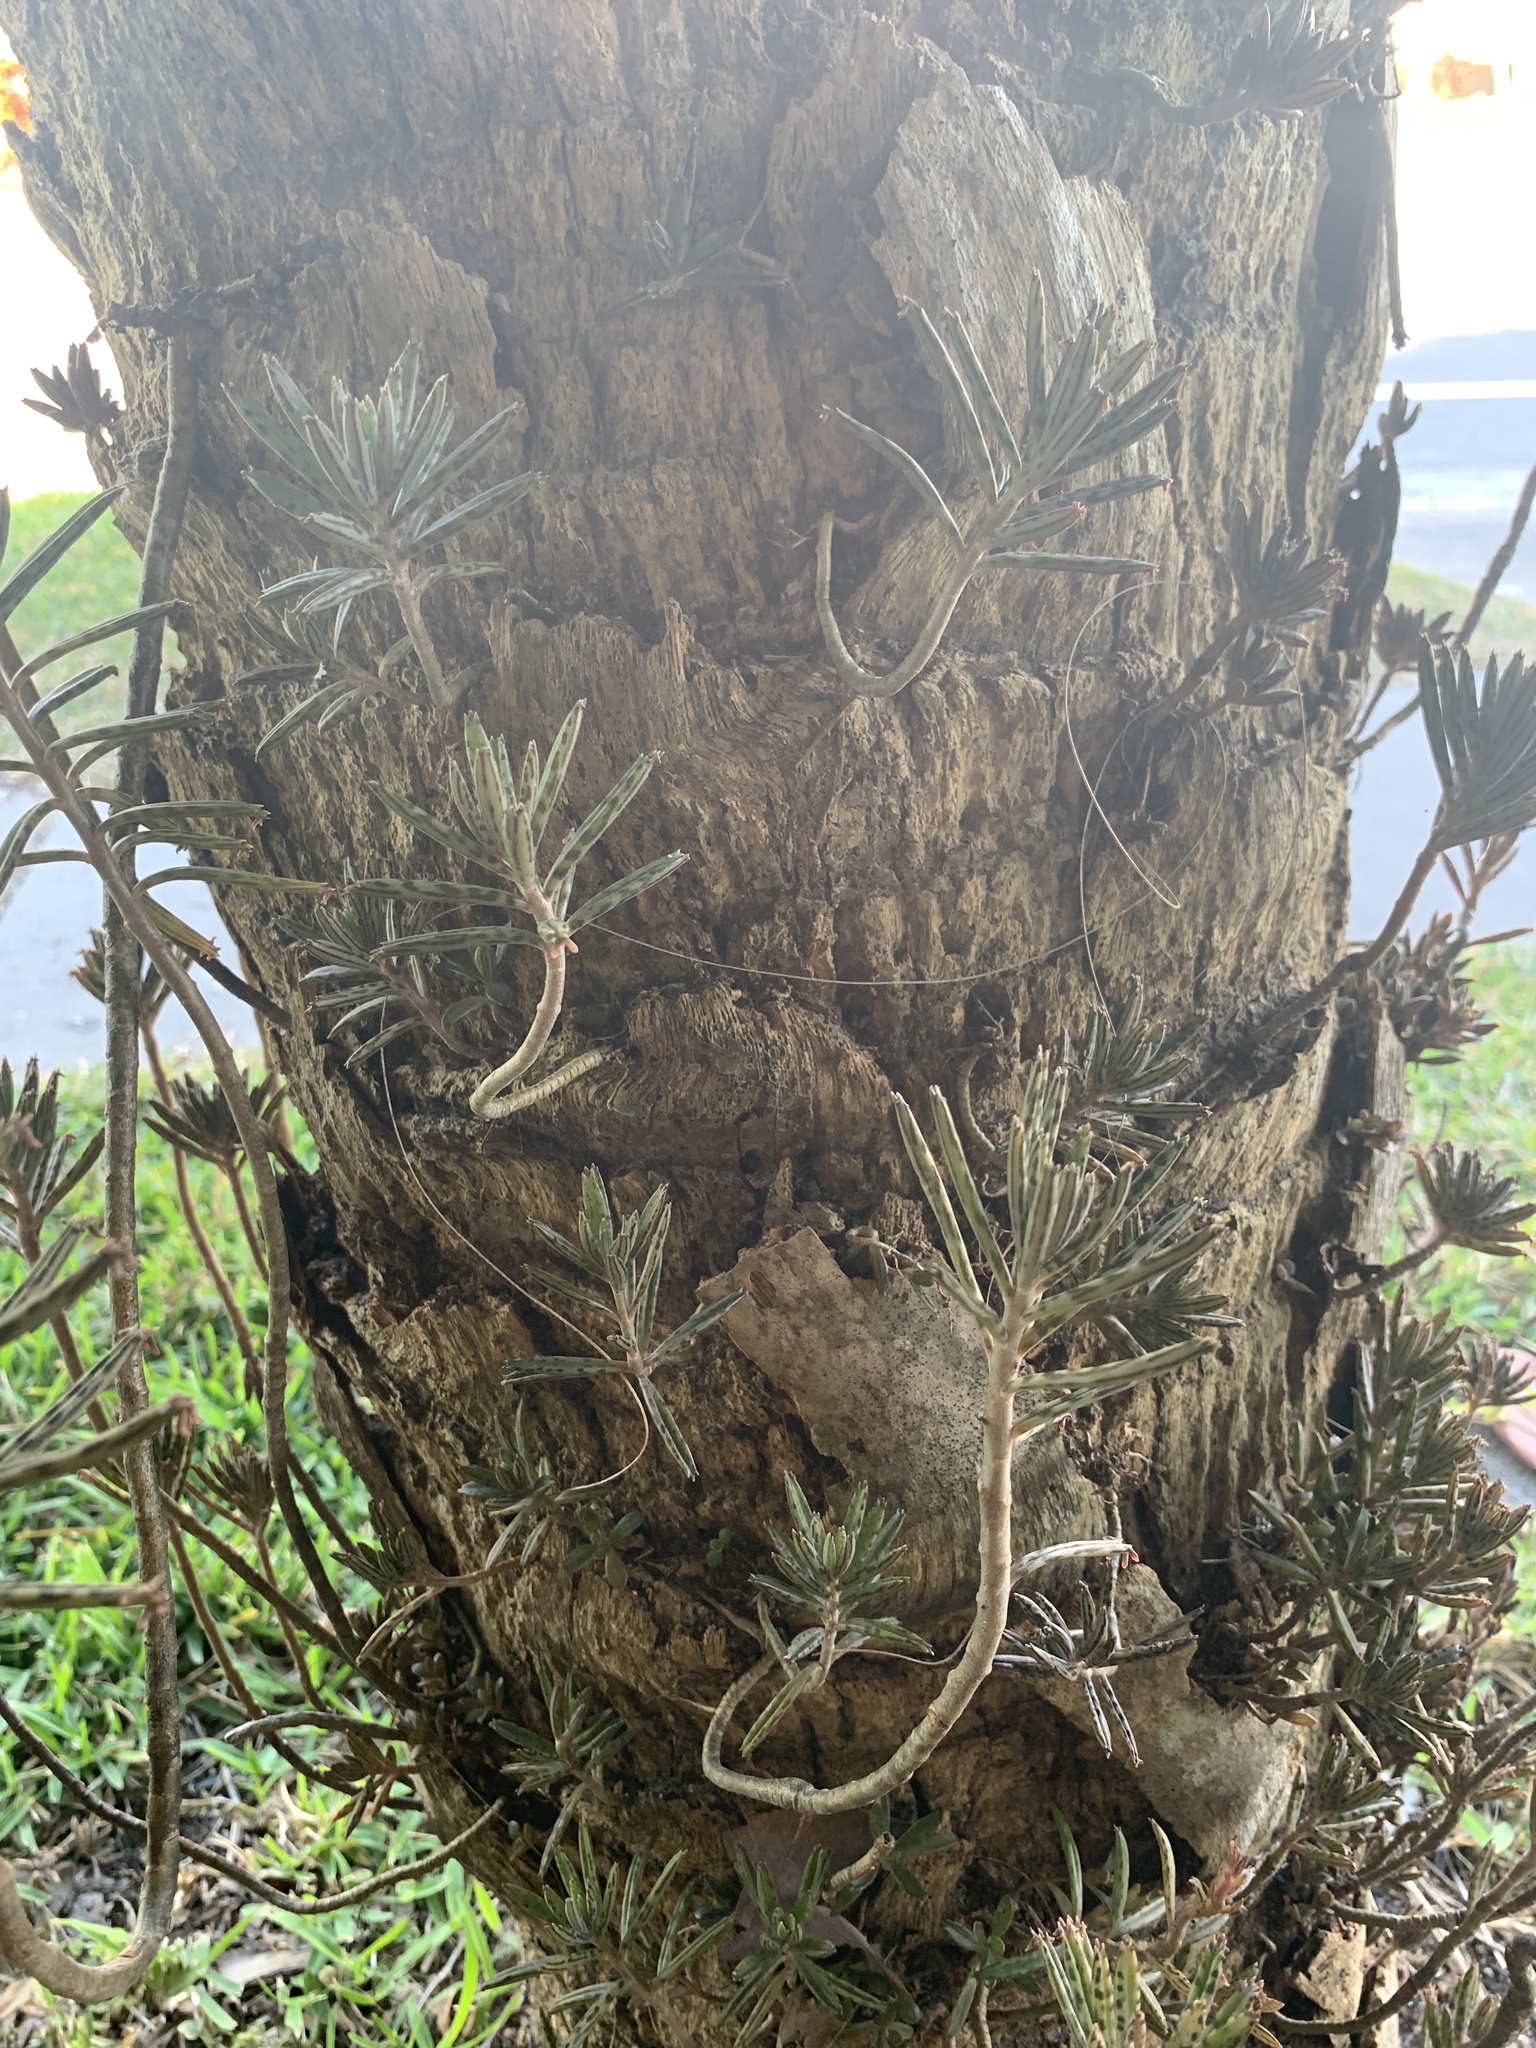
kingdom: Plantae
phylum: Tracheophyta
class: Magnoliopsida
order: Saxifragales
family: Crassulaceae
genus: Kalanchoe
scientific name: Kalanchoe delagoensis
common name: Chandelier plant
